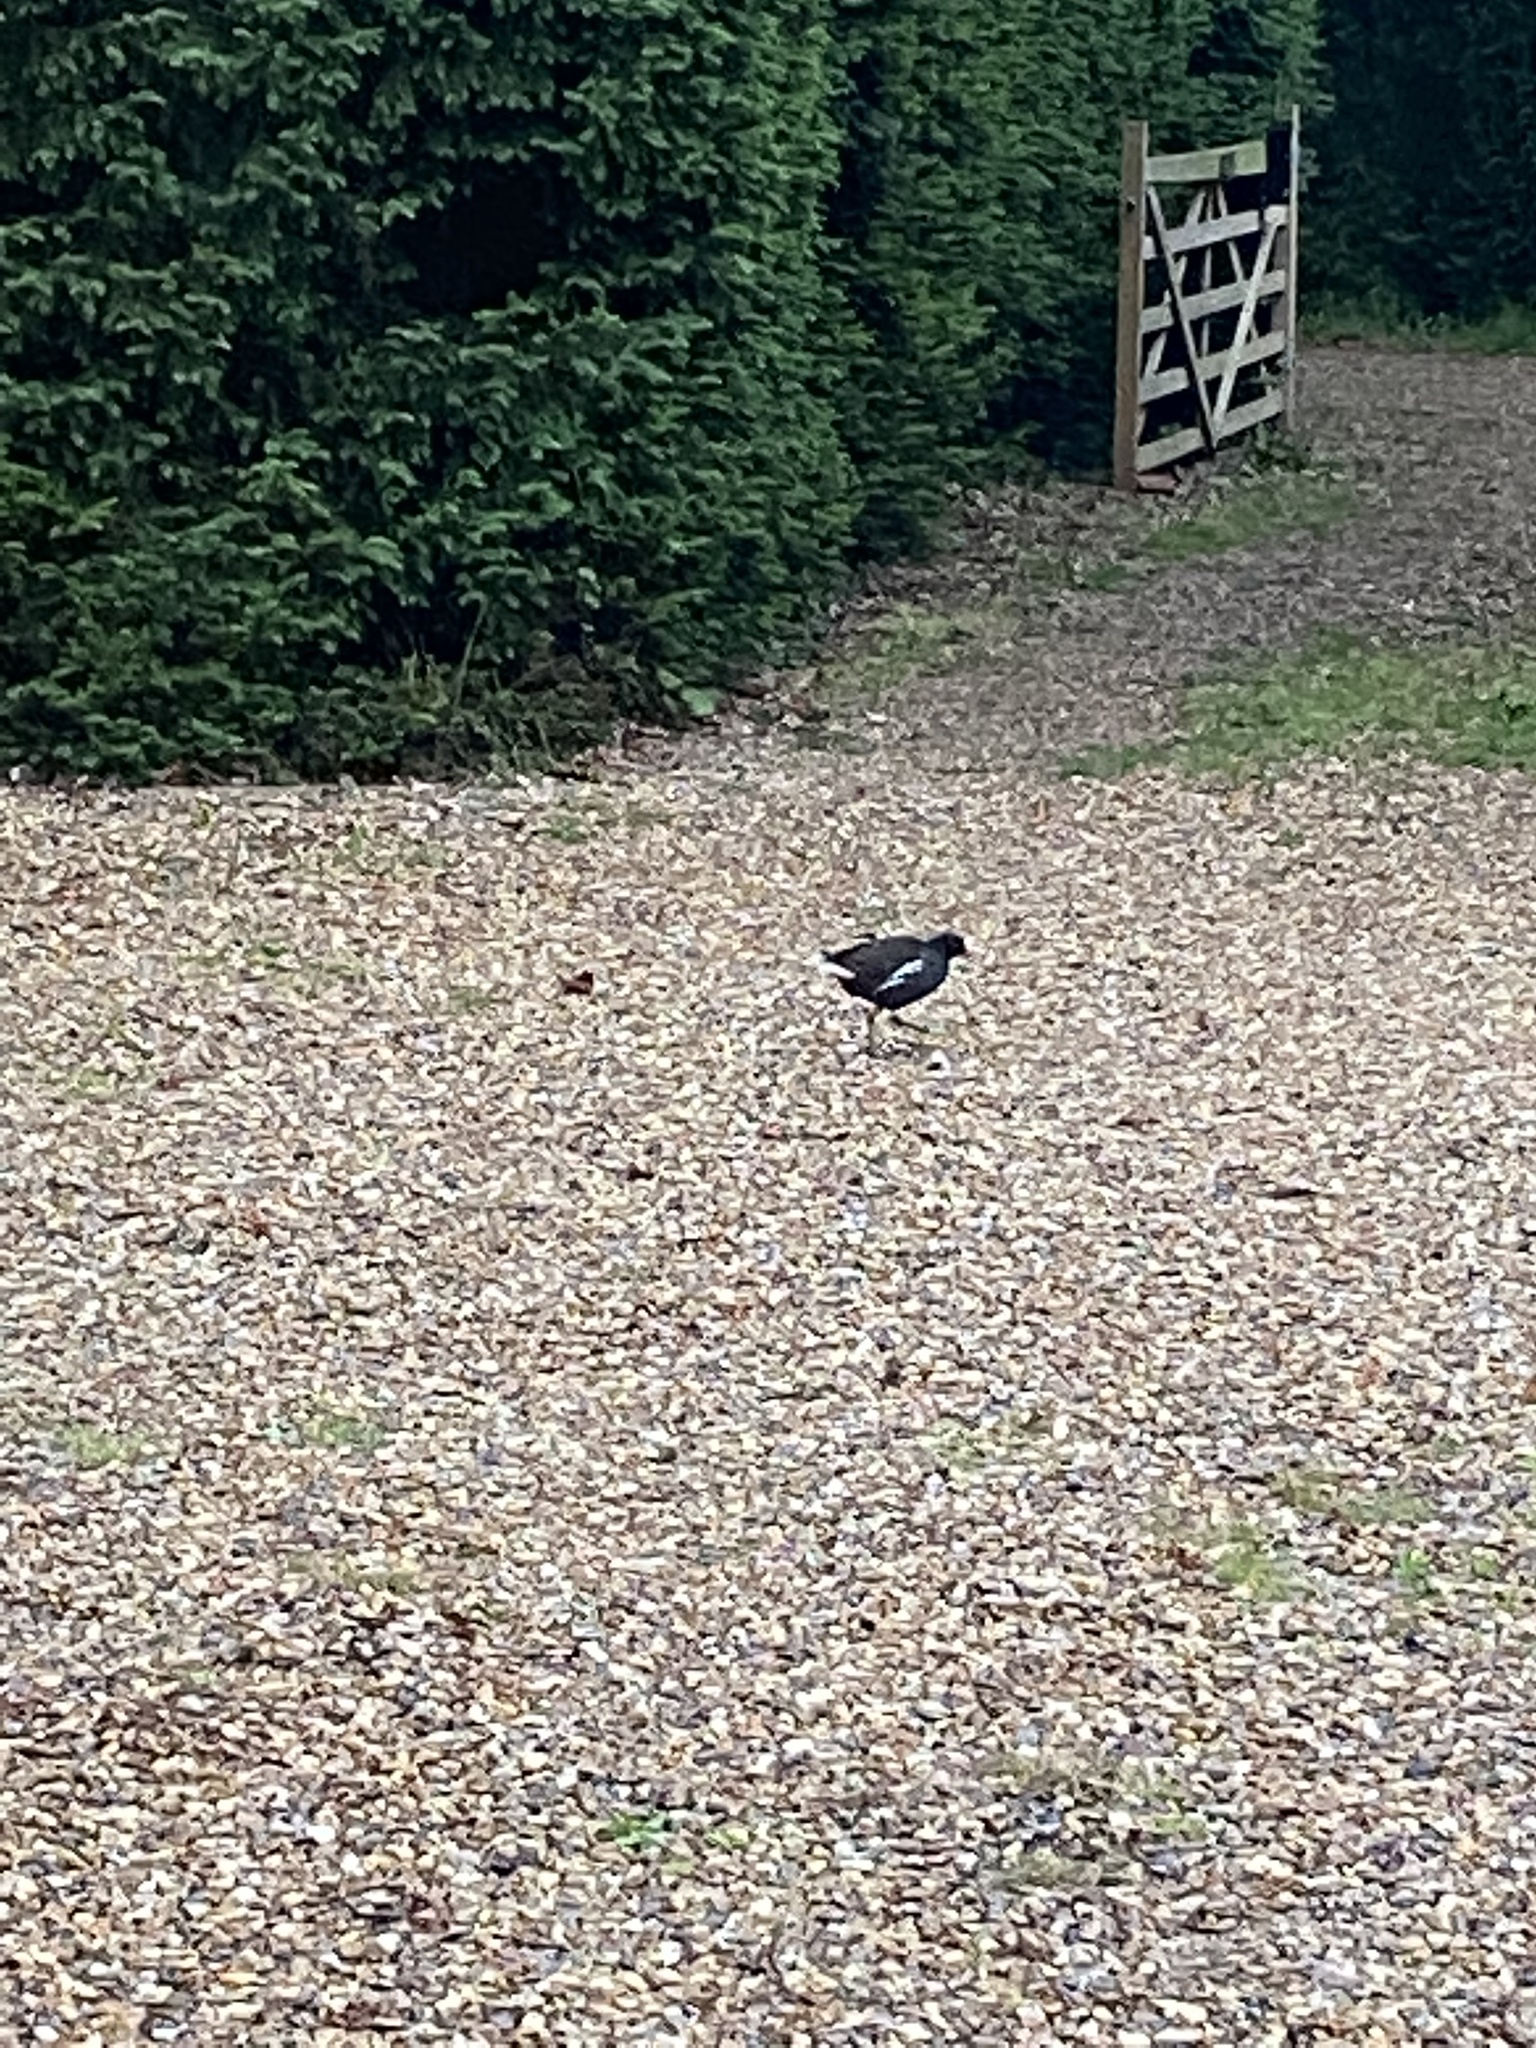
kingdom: Animalia
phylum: Chordata
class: Aves
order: Gruiformes
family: Rallidae
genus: Gallinula
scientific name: Gallinula chloropus
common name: Common moorhen
